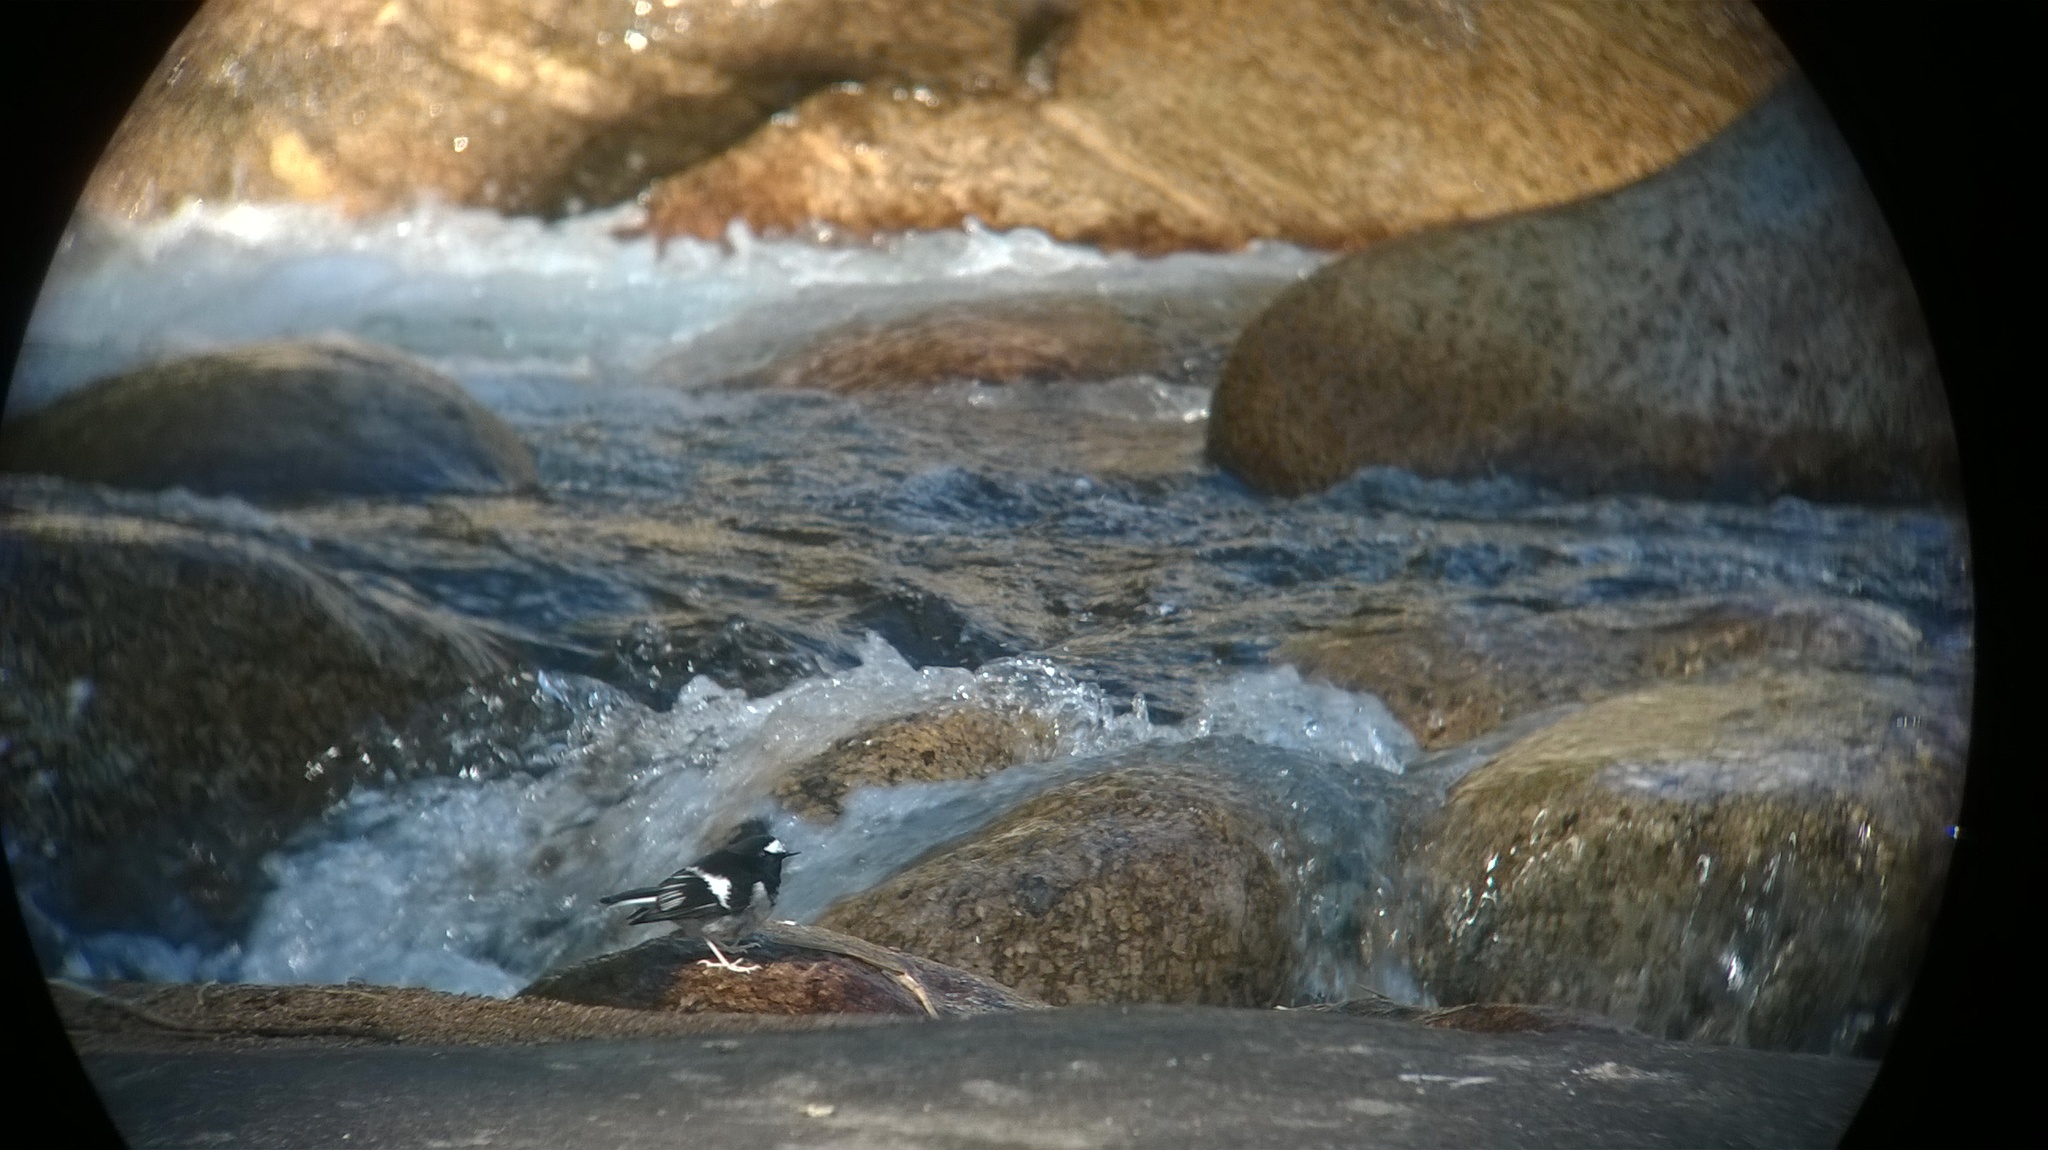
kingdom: Animalia
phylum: Chordata
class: Aves
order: Passeriformes
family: Muscicapidae
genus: Enicurus
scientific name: Enicurus scouleri
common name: Little forktail
